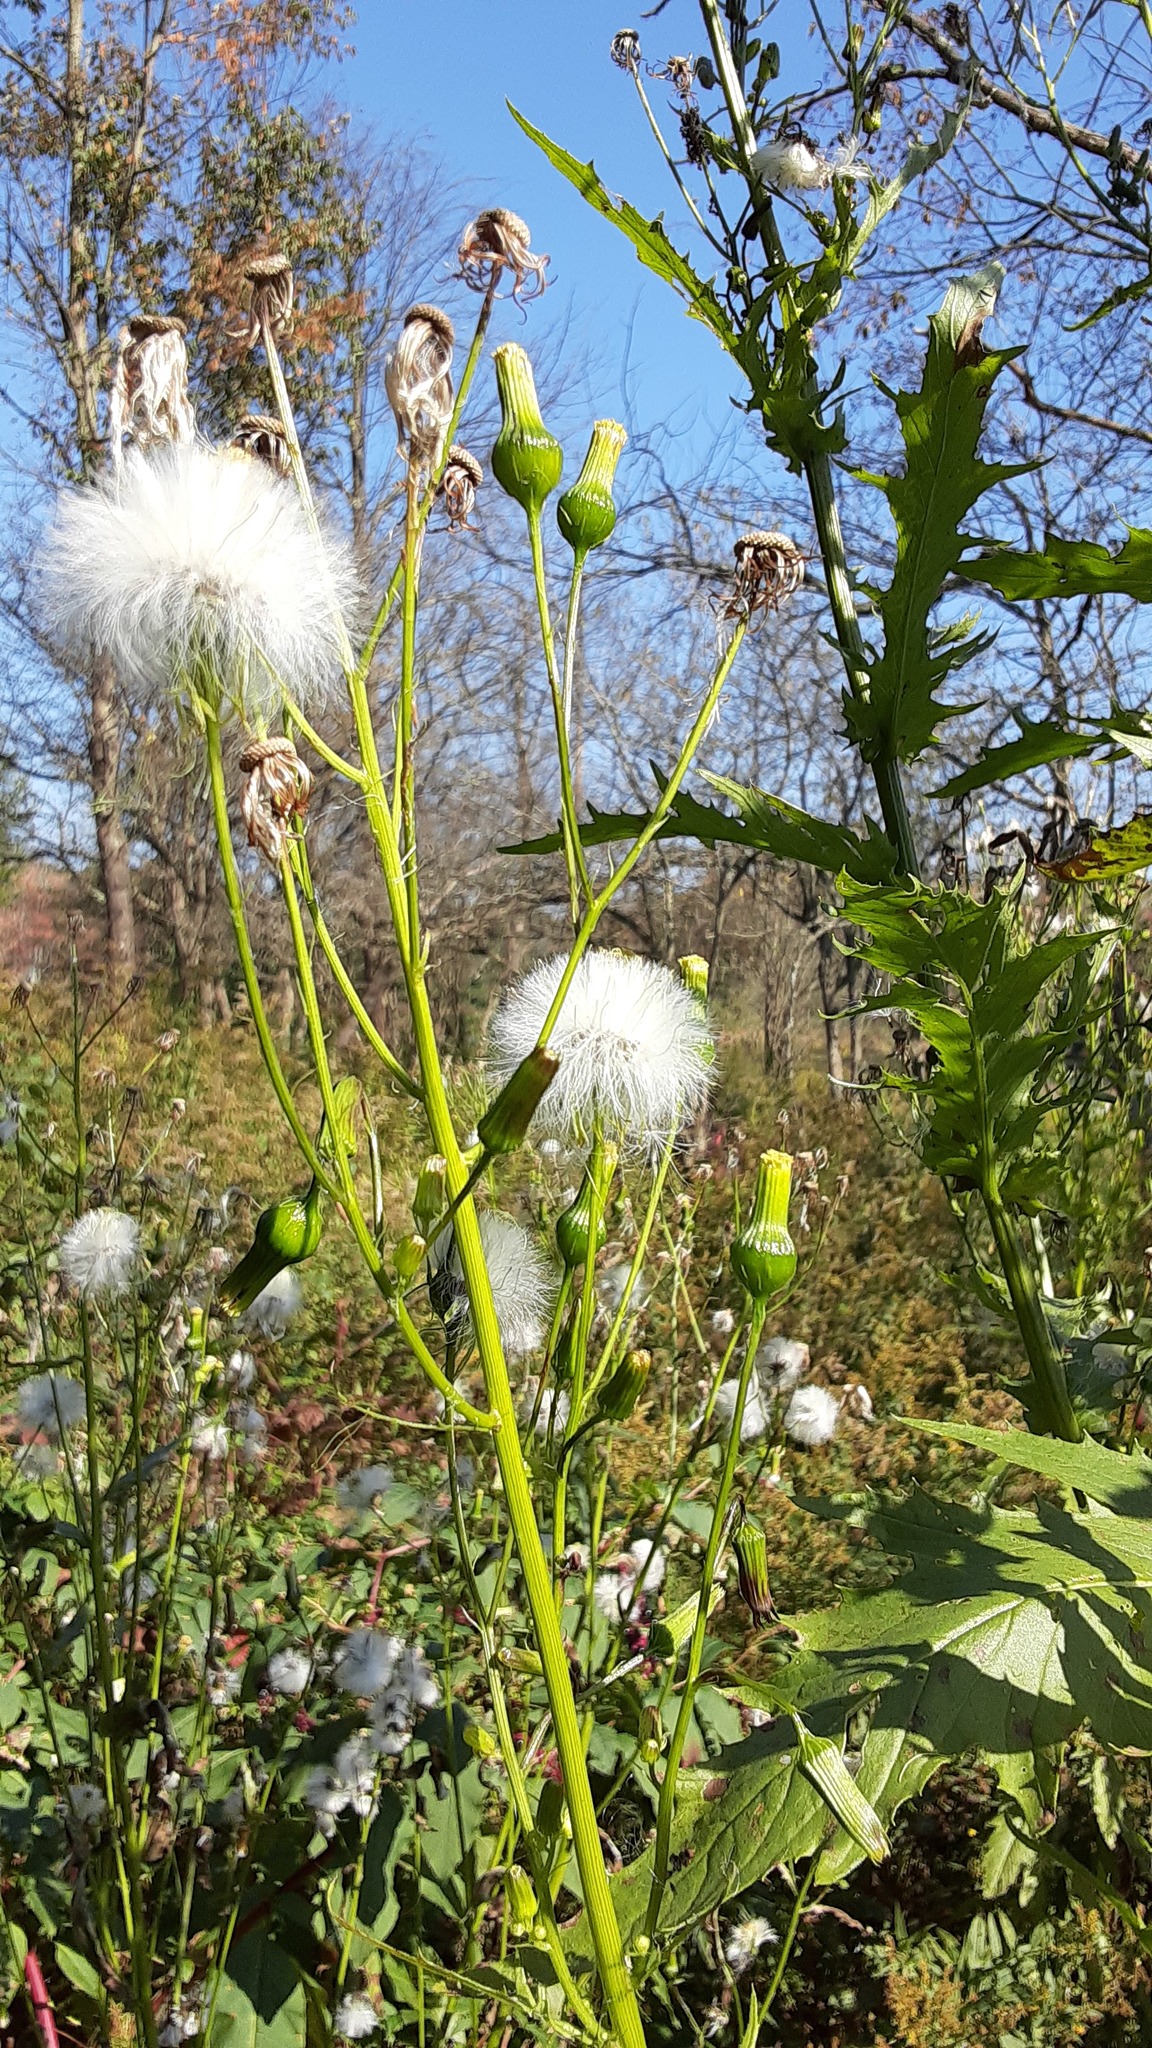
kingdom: Plantae
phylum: Tracheophyta
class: Magnoliopsida
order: Asterales
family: Asteraceae
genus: Erechtites
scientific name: Erechtites hieraciifolius
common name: American burnweed
